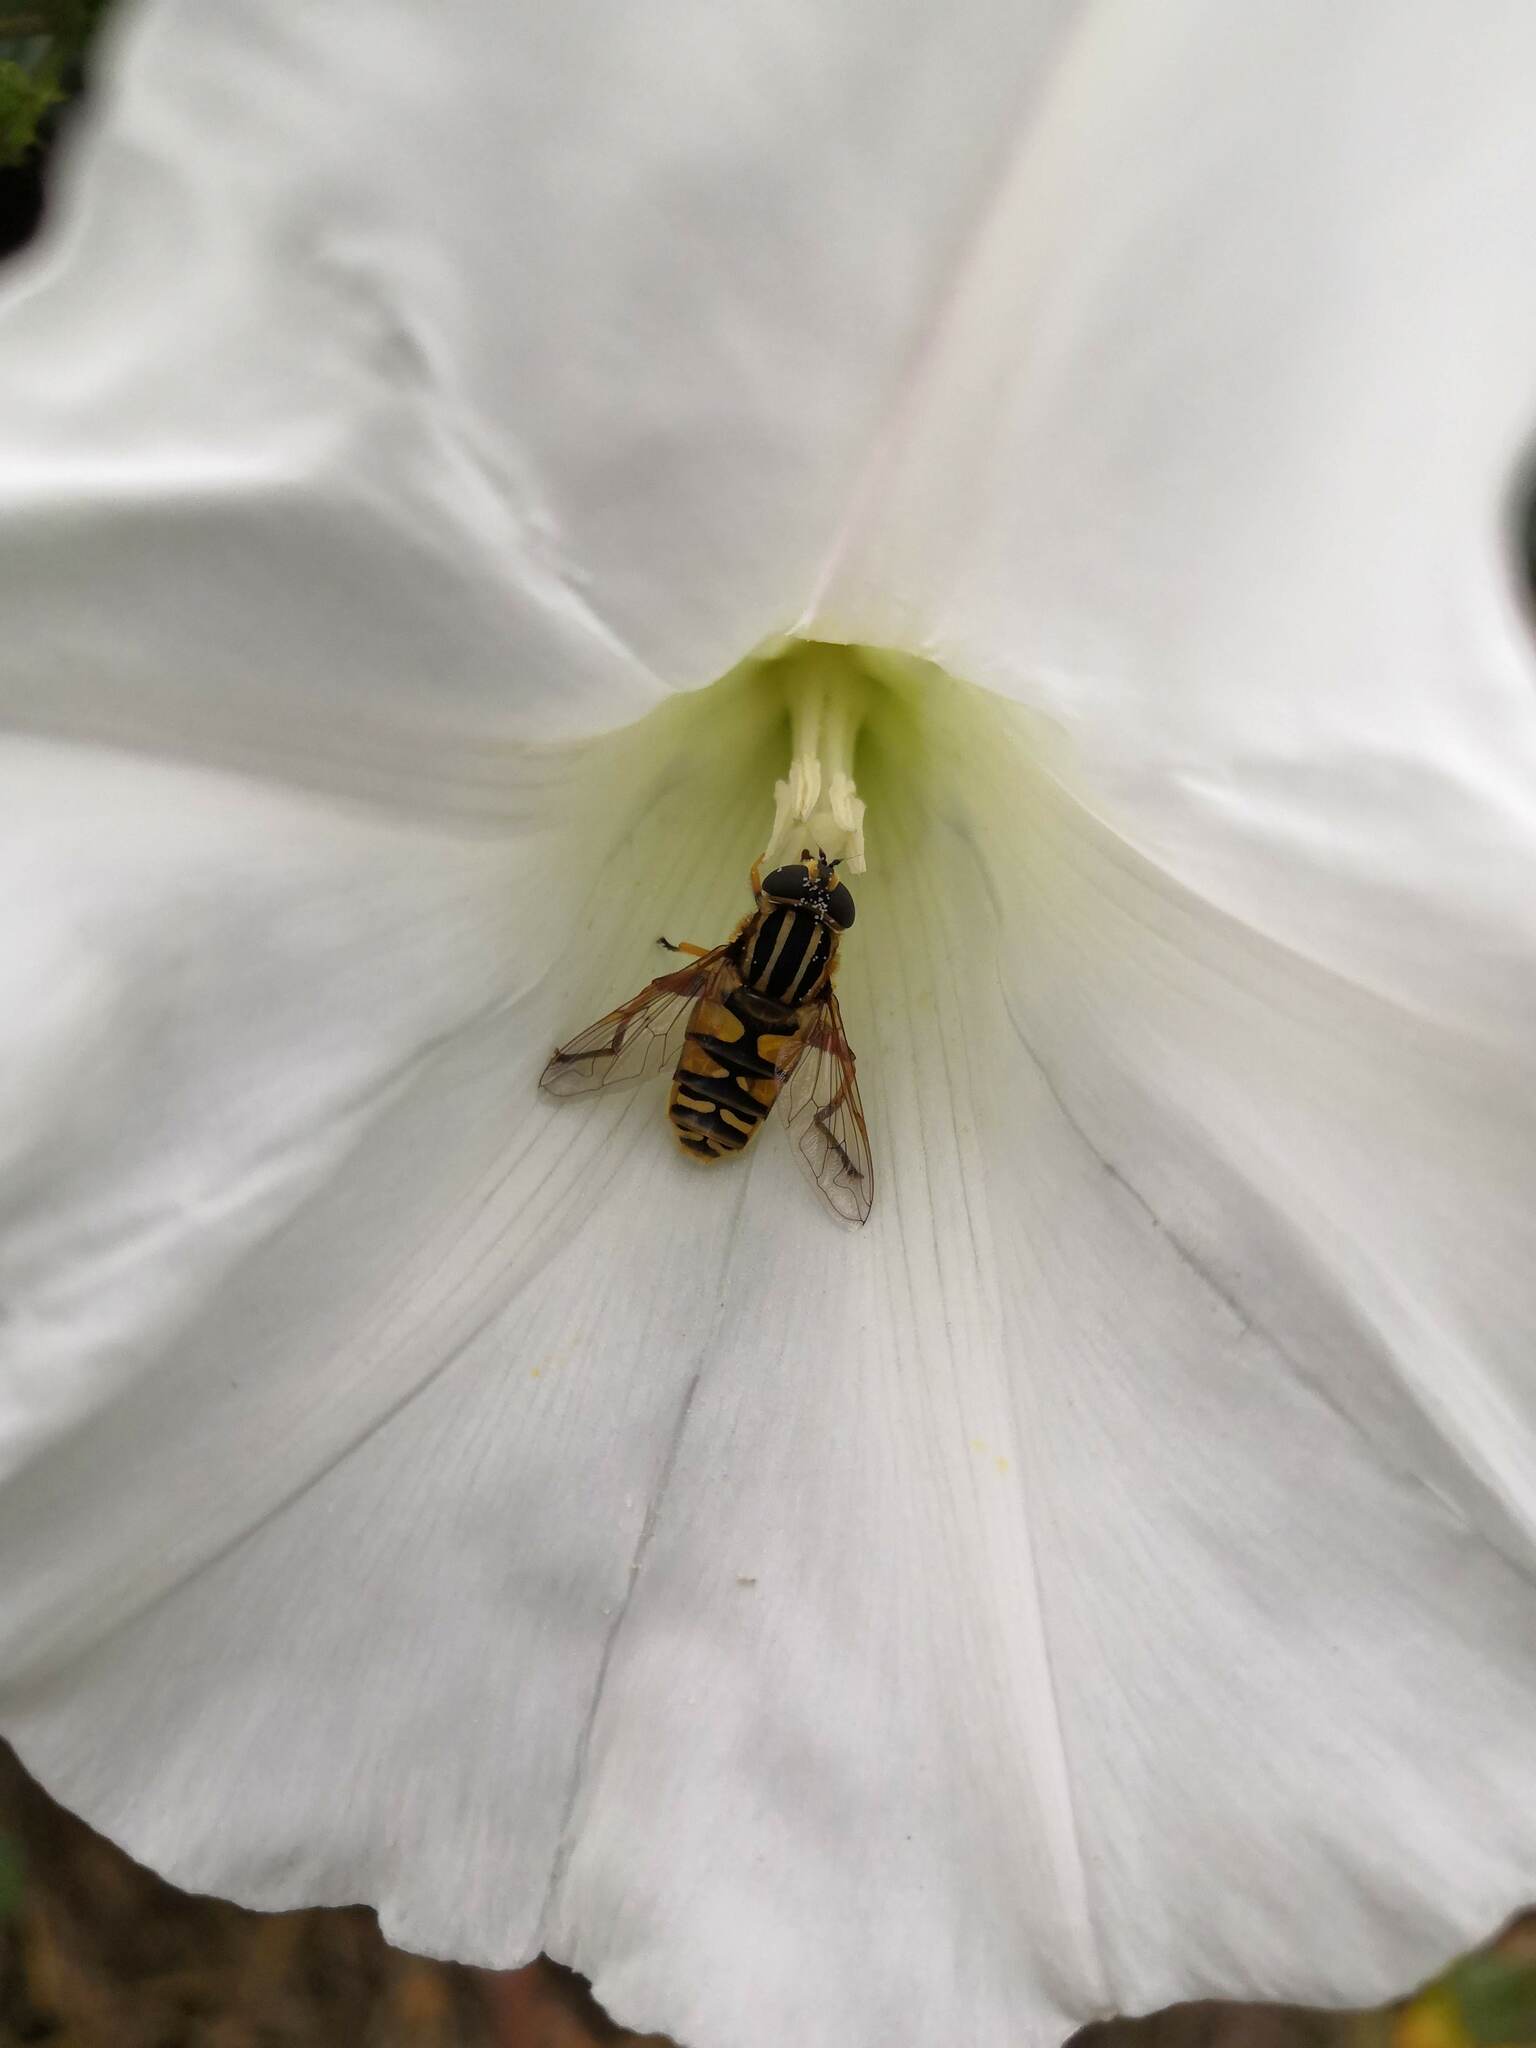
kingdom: Animalia
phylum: Arthropoda
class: Insecta
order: Diptera
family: Syrphidae
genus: Helophilus
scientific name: Helophilus pendulus
